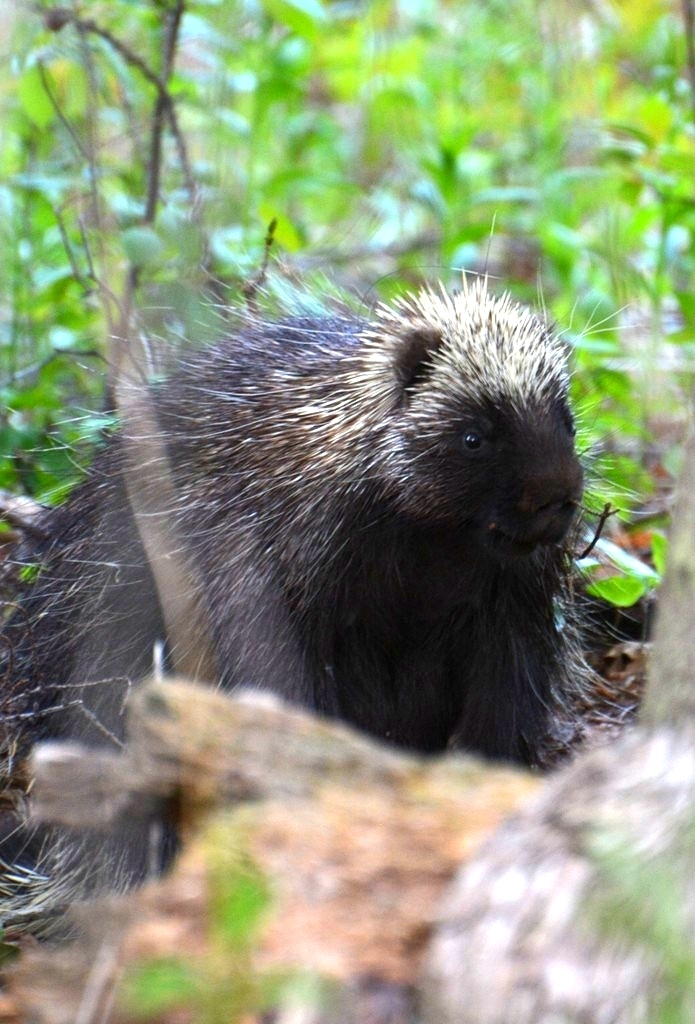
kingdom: Animalia
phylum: Chordata
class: Mammalia
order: Rodentia
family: Erethizontidae
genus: Erethizon
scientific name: Erethizon dorsatus
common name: North american porcupine
